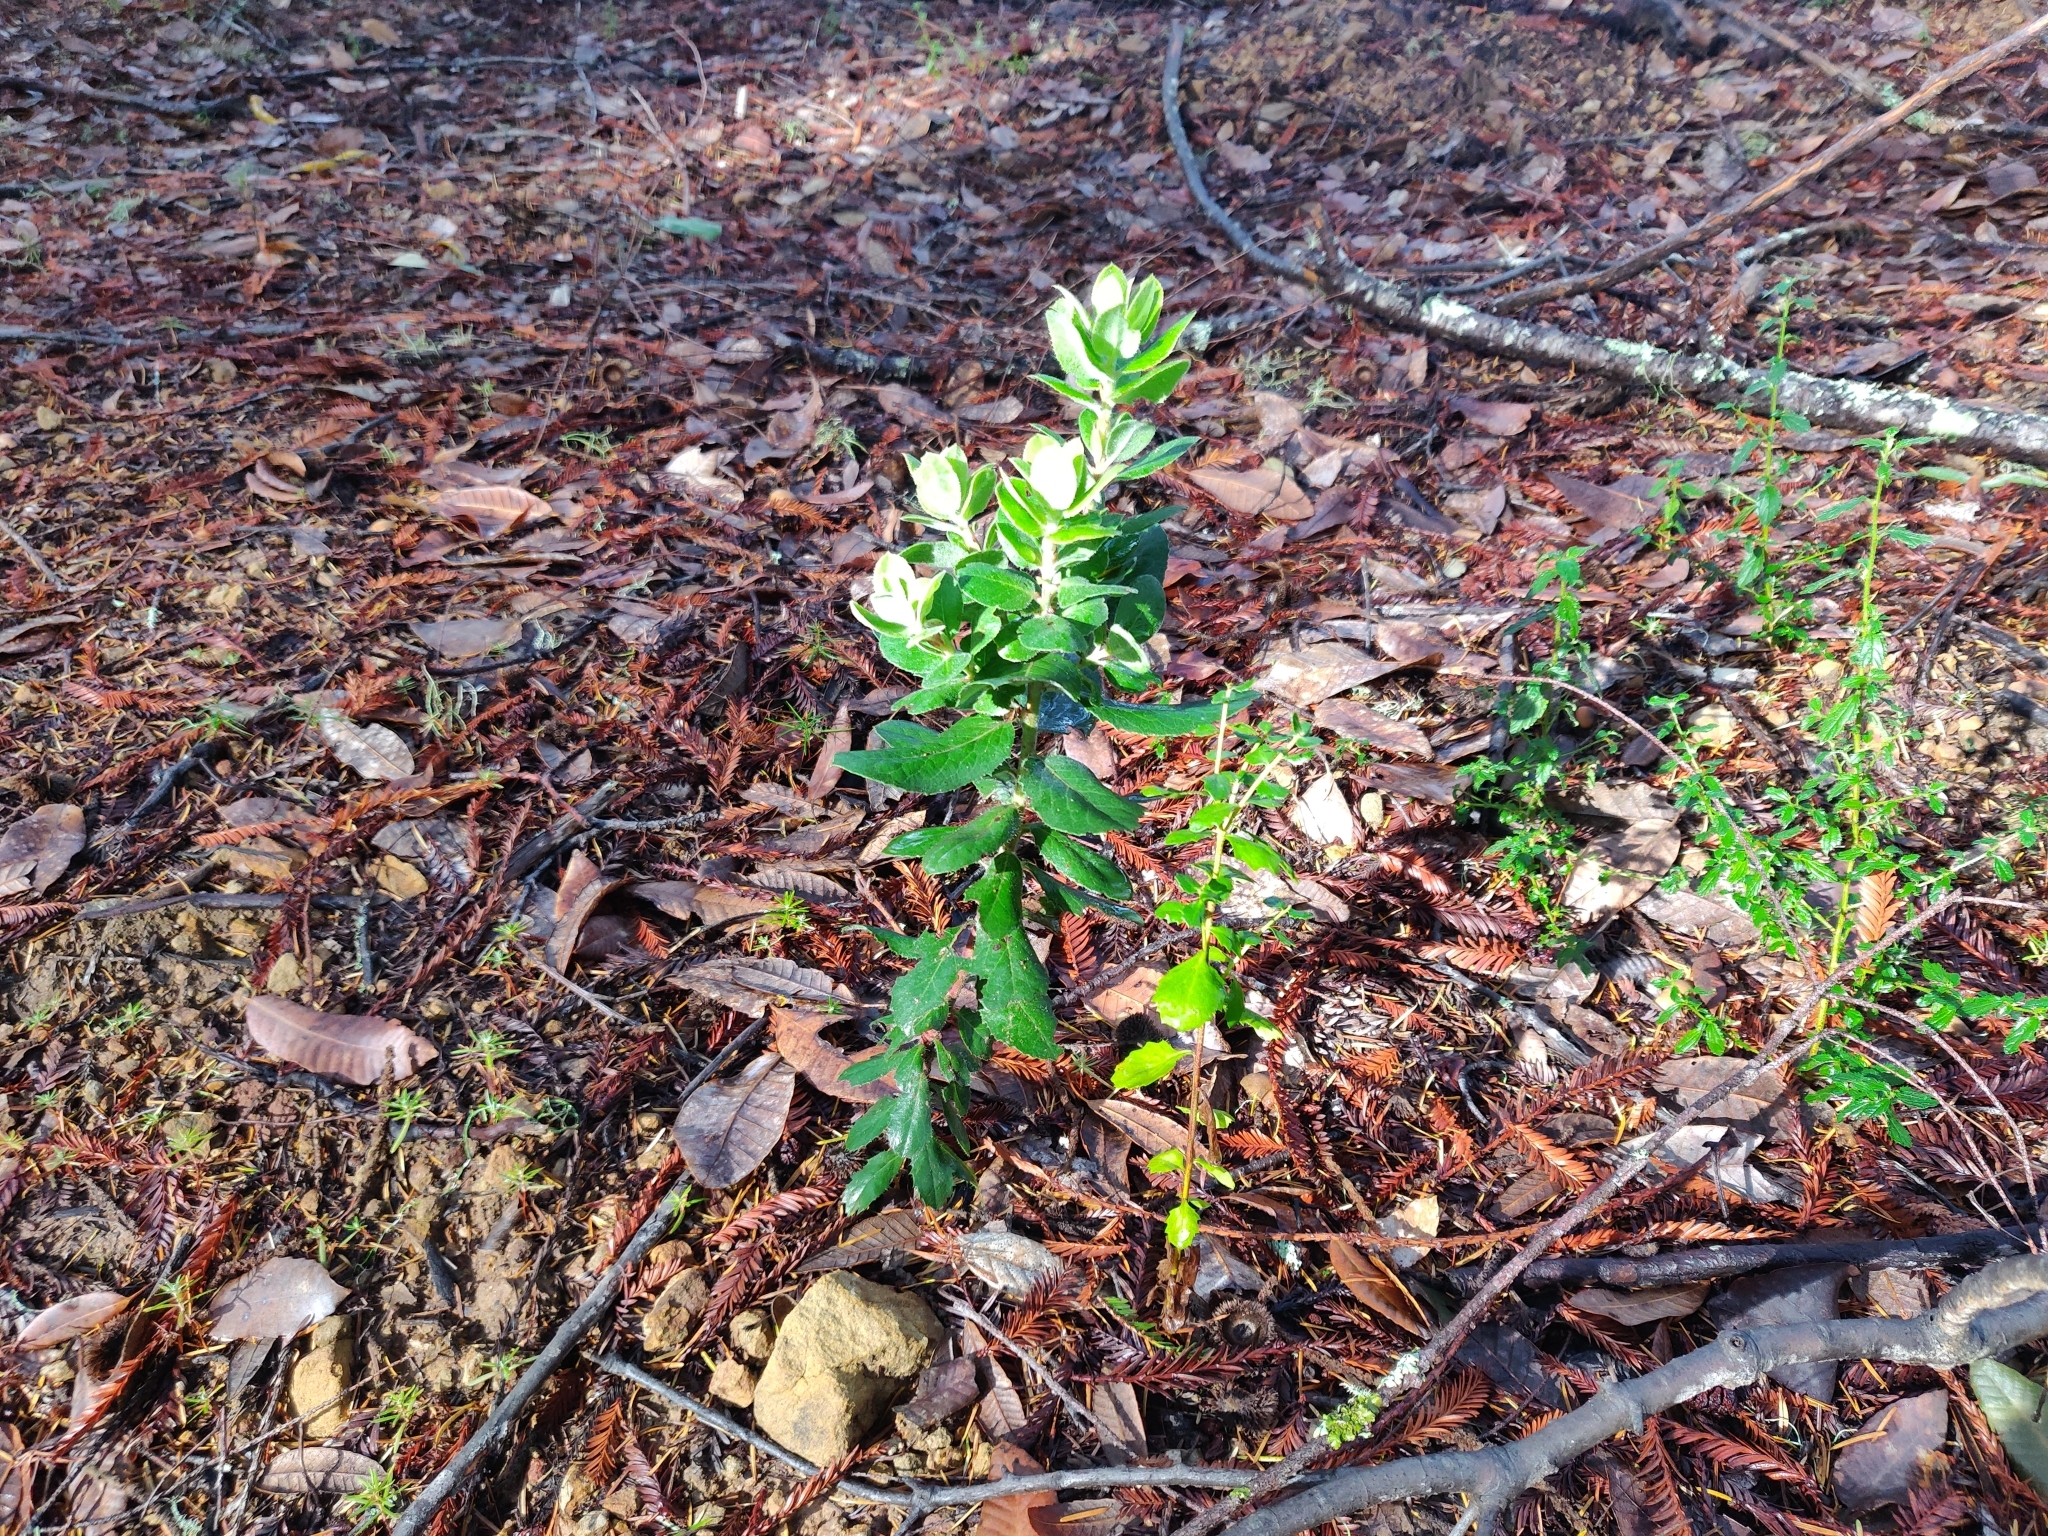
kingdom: Plantae
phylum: Tracheophyta
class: Magnoliopsida
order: Ericales
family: Ericaceae
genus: Arctostaphylos
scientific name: Arctostaphylos crustacea
